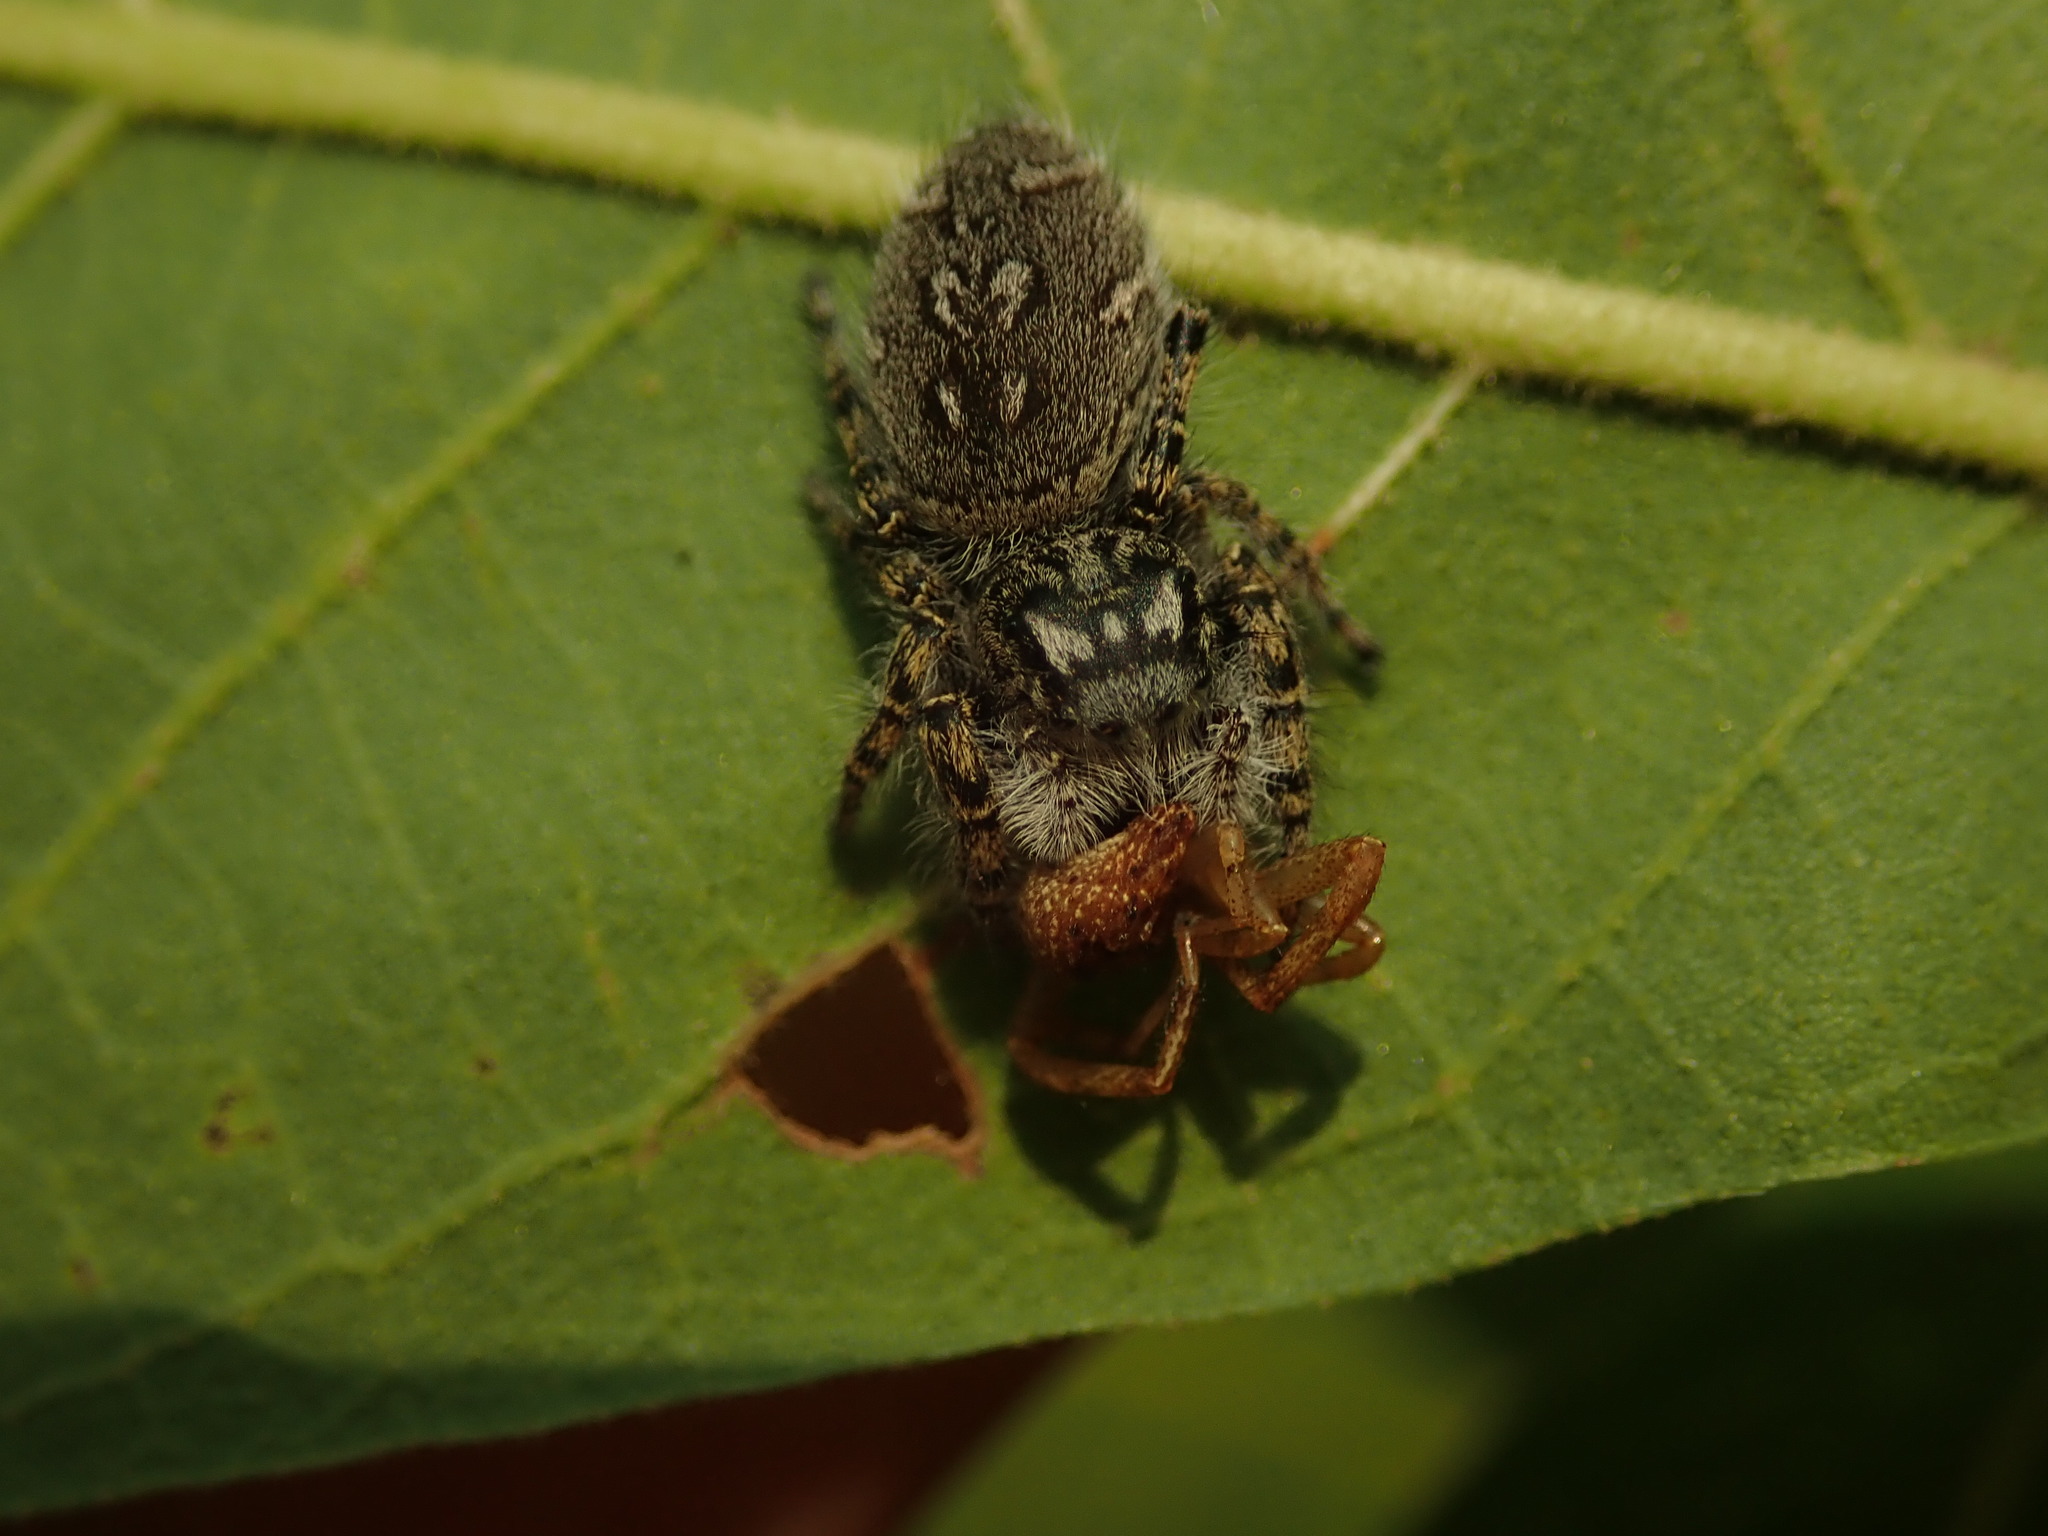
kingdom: Animalia
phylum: Arthropoda
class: Arachnida
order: Araneae
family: Salticidae
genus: Phidippus
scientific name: Phidippus mystaceus
